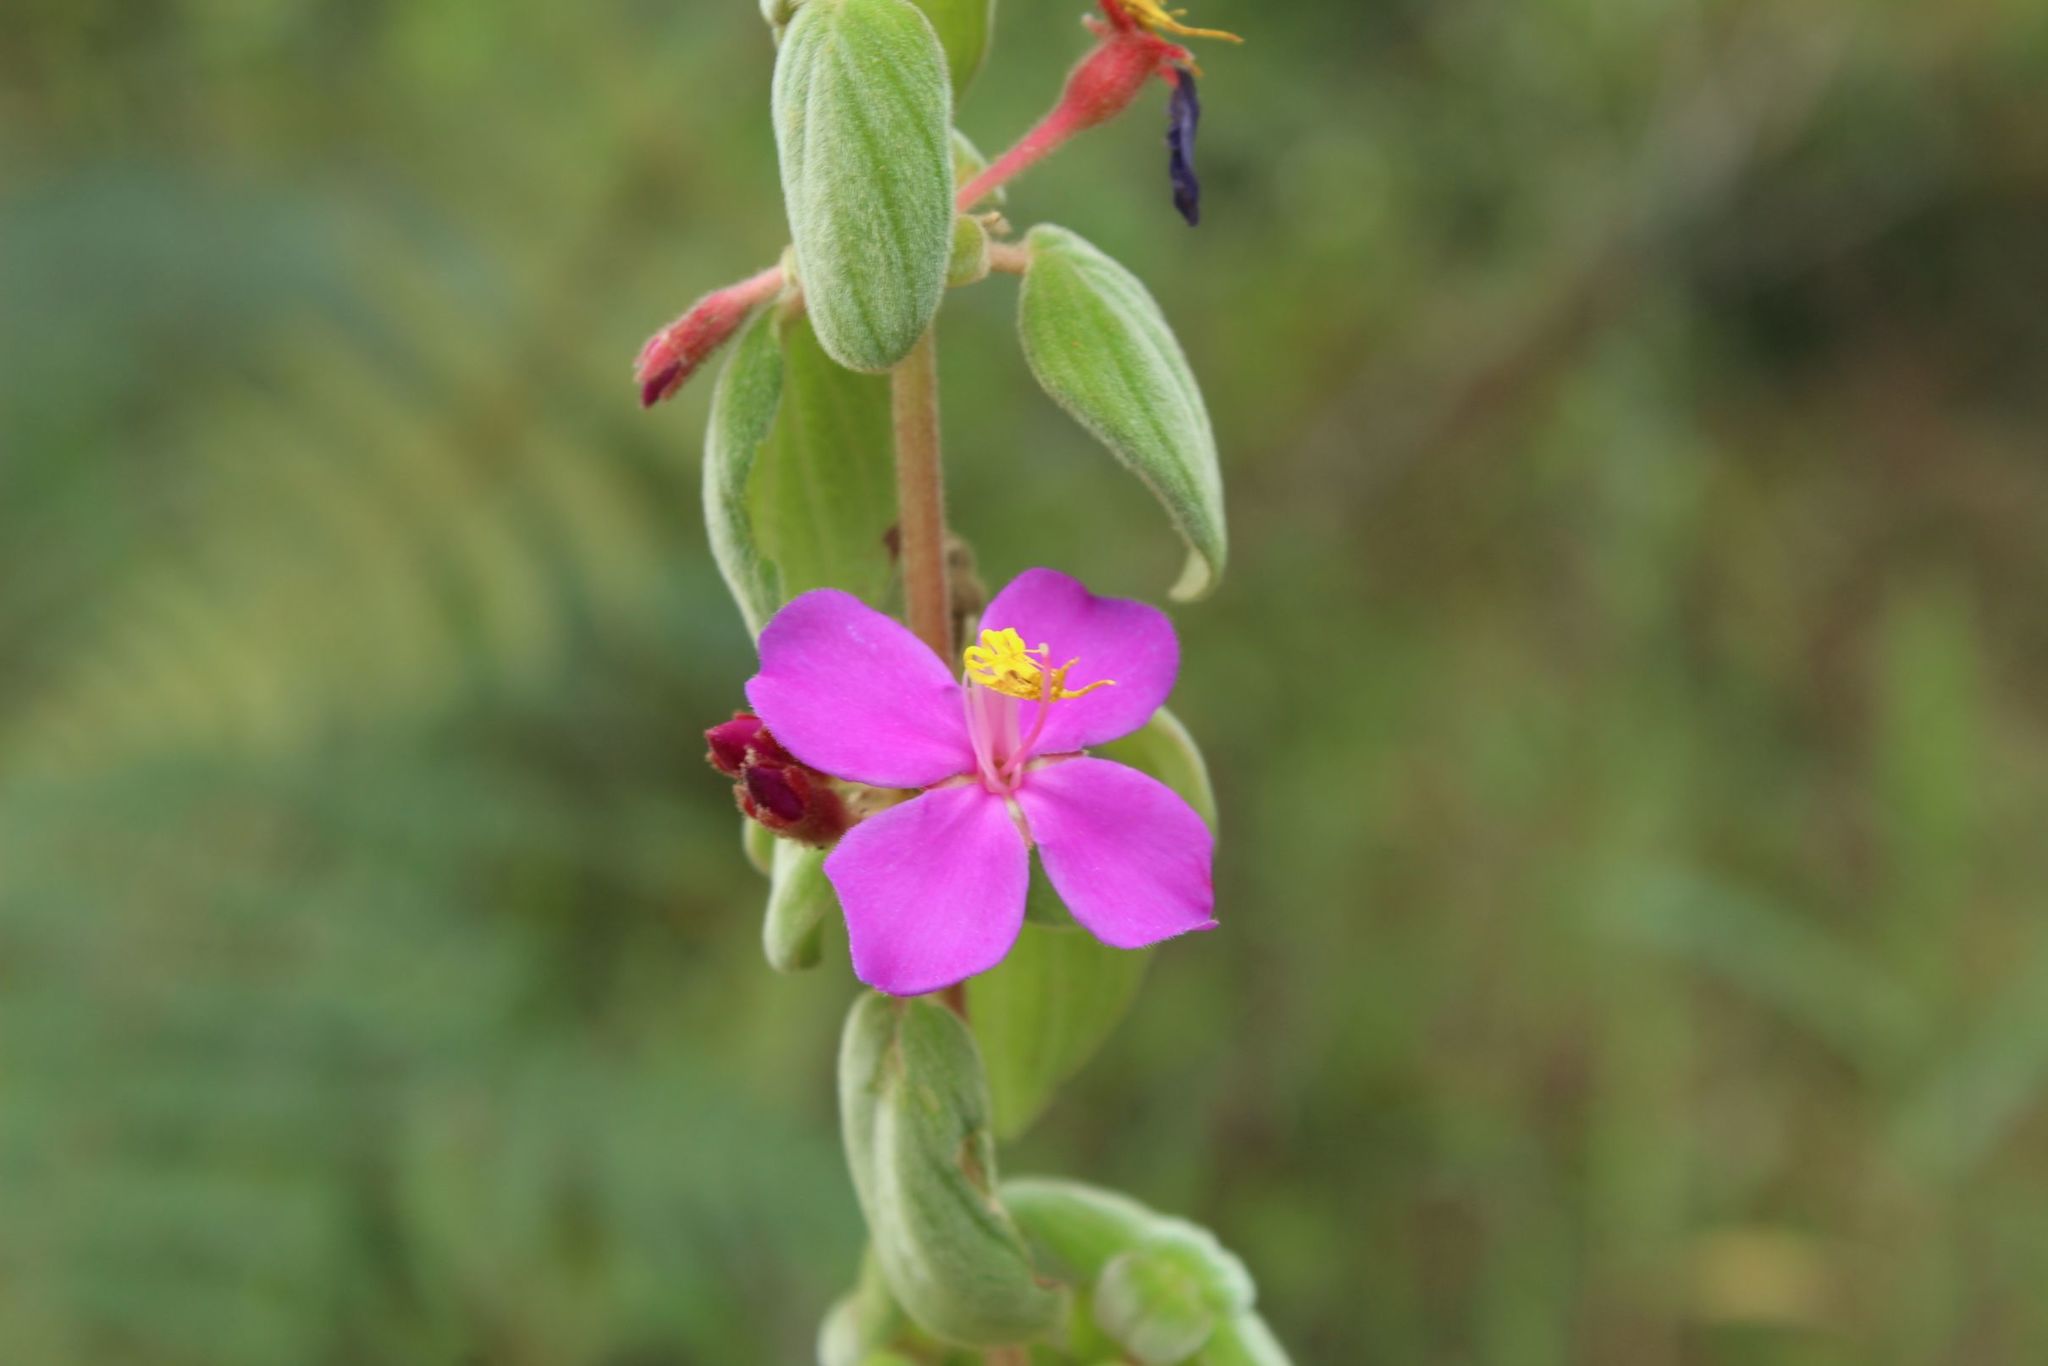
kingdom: Plantae
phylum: Tracheophyta
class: Magnoliopsida
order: Myrtales
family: Melastomataceae
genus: Monochaetum
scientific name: Monochaetum bonplandii
